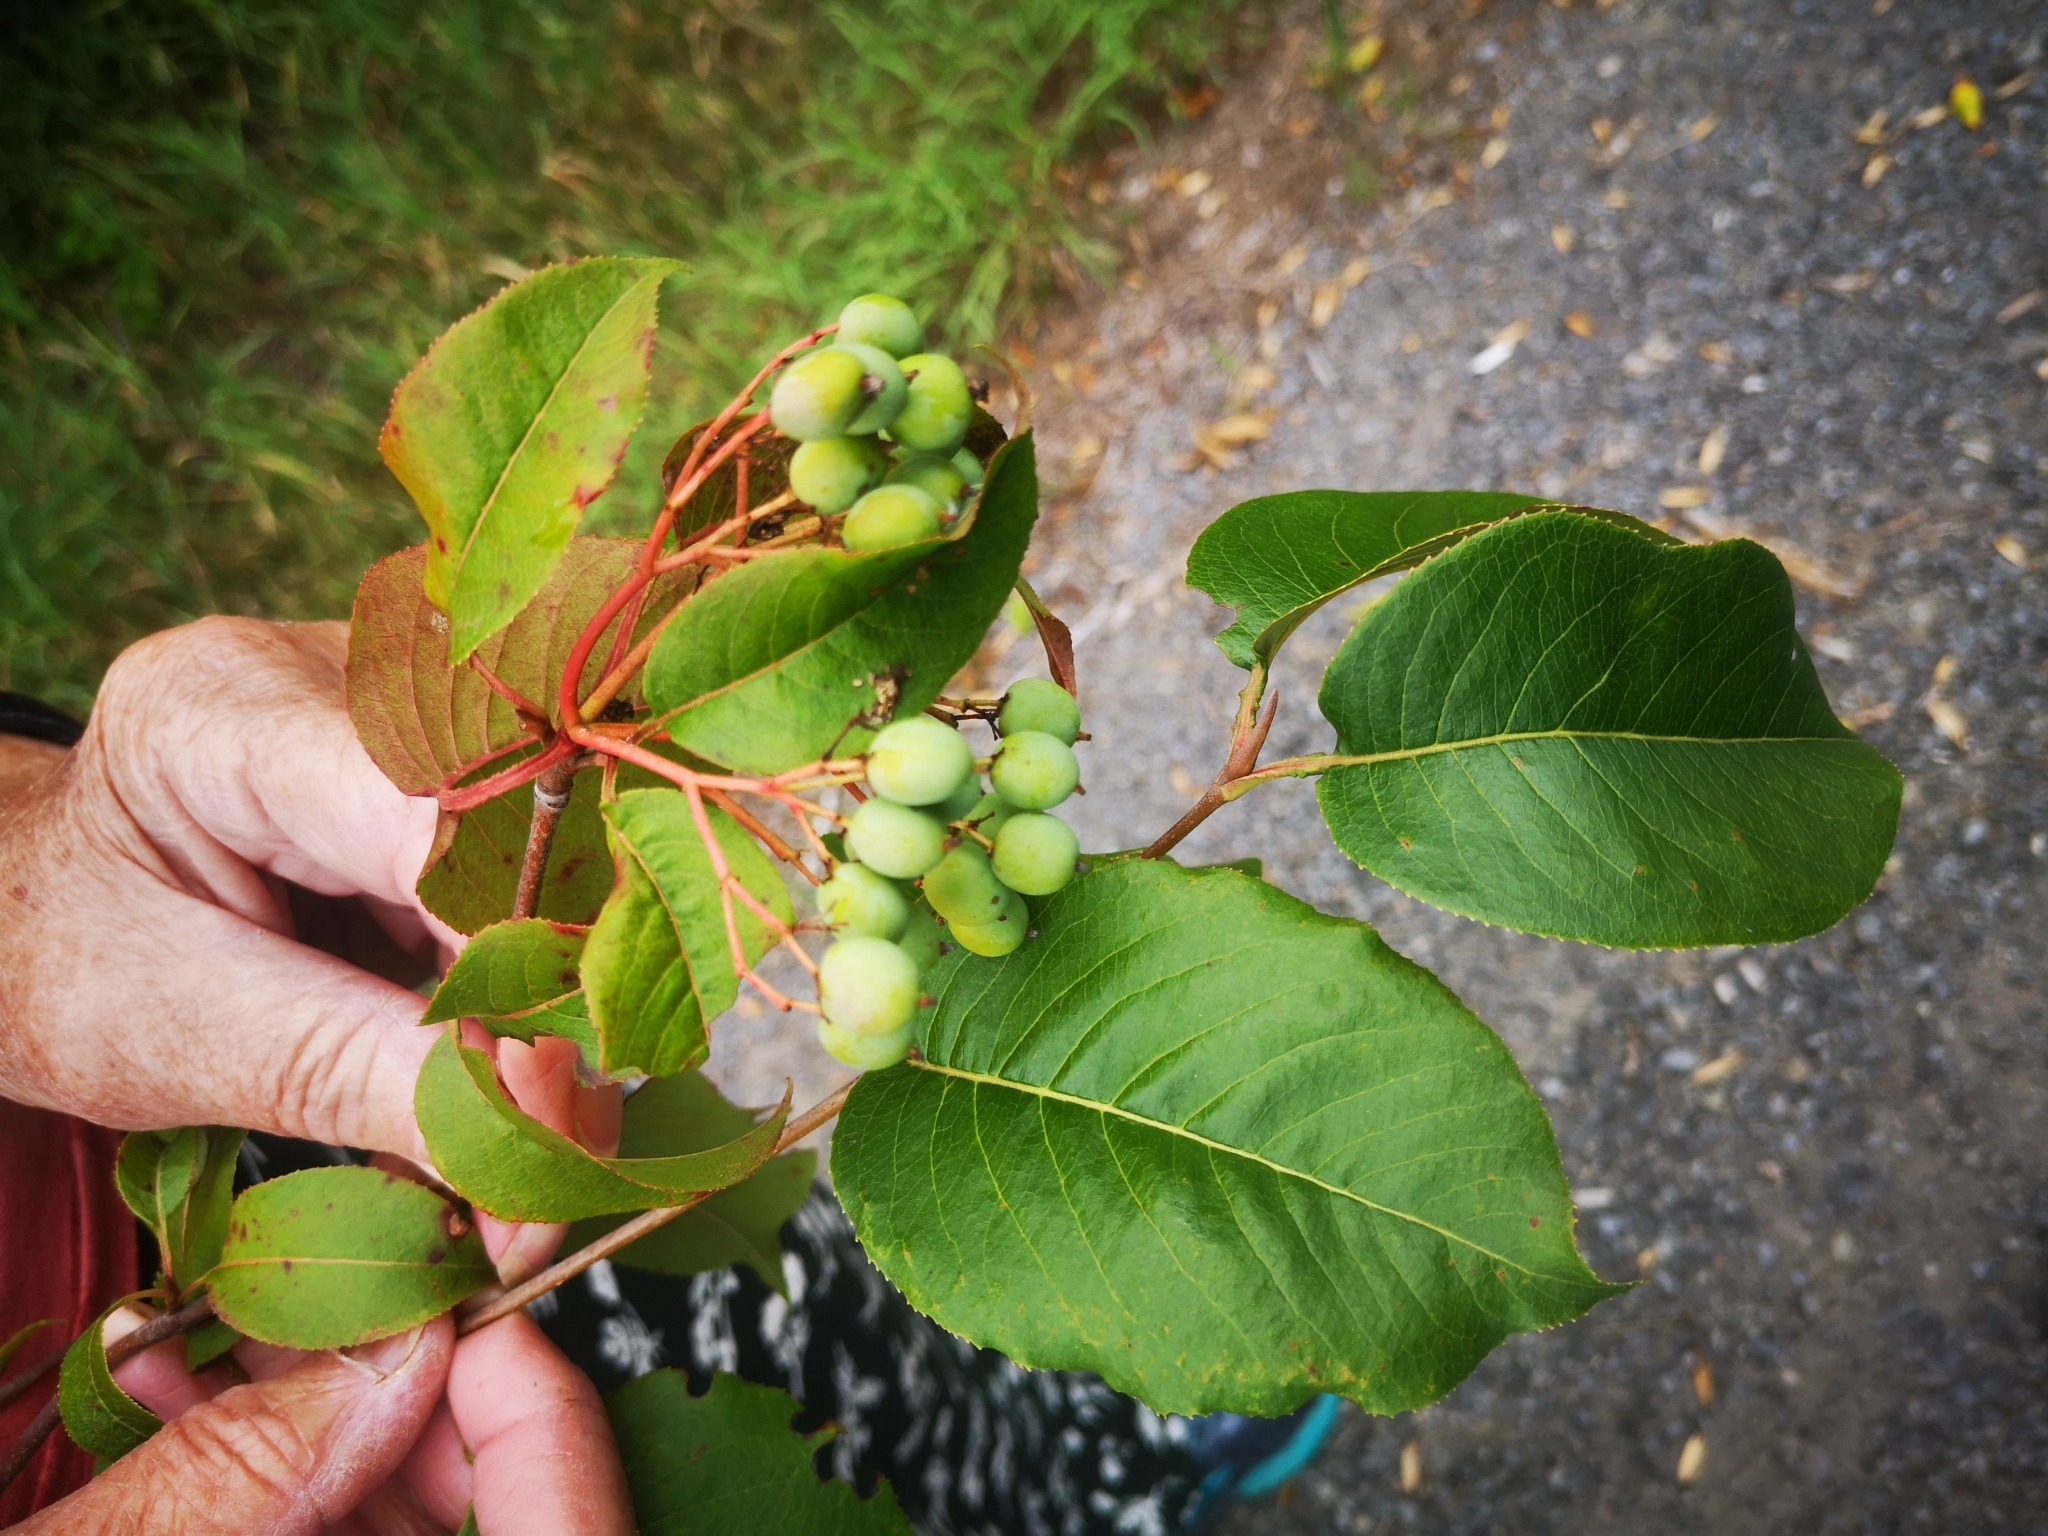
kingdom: Plantae
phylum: Tracheophyta
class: Magnoliopsida
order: Dipsacales
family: Viburnaceae
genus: Viburnum
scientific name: Viburnum lentago
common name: Black haw
